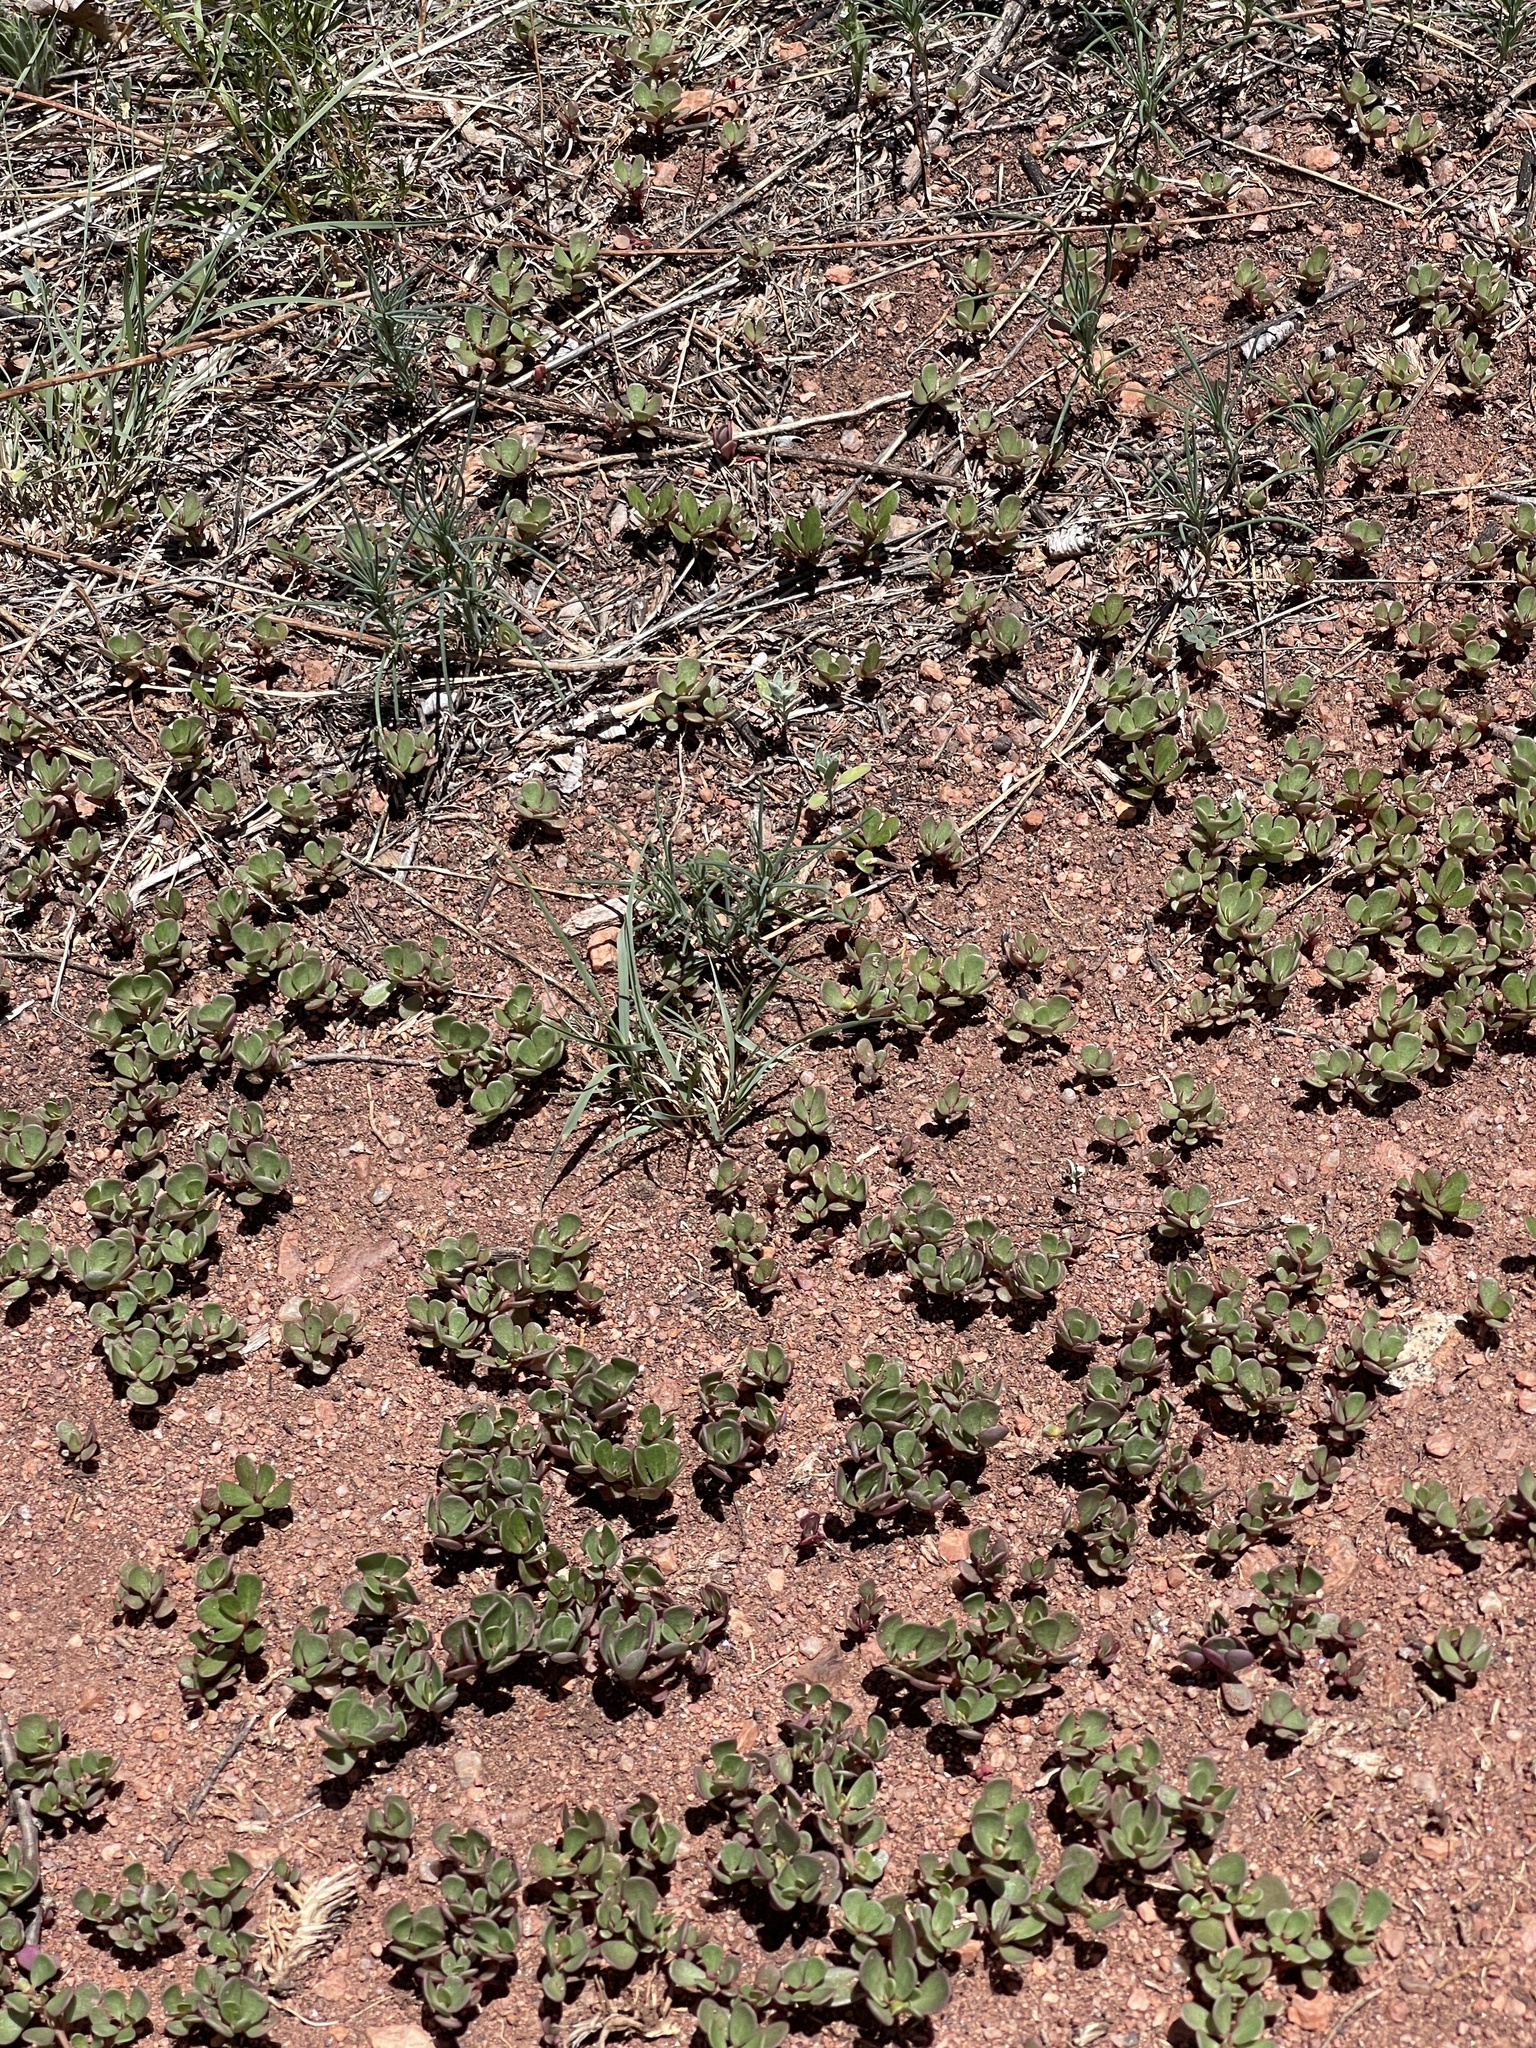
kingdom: Plantae
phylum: Tracheophyta
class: Magnoliopsida
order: Caryophyllales
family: Portulacaceae
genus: Portulaca
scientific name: Portulaca oleracea
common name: Common purslane
